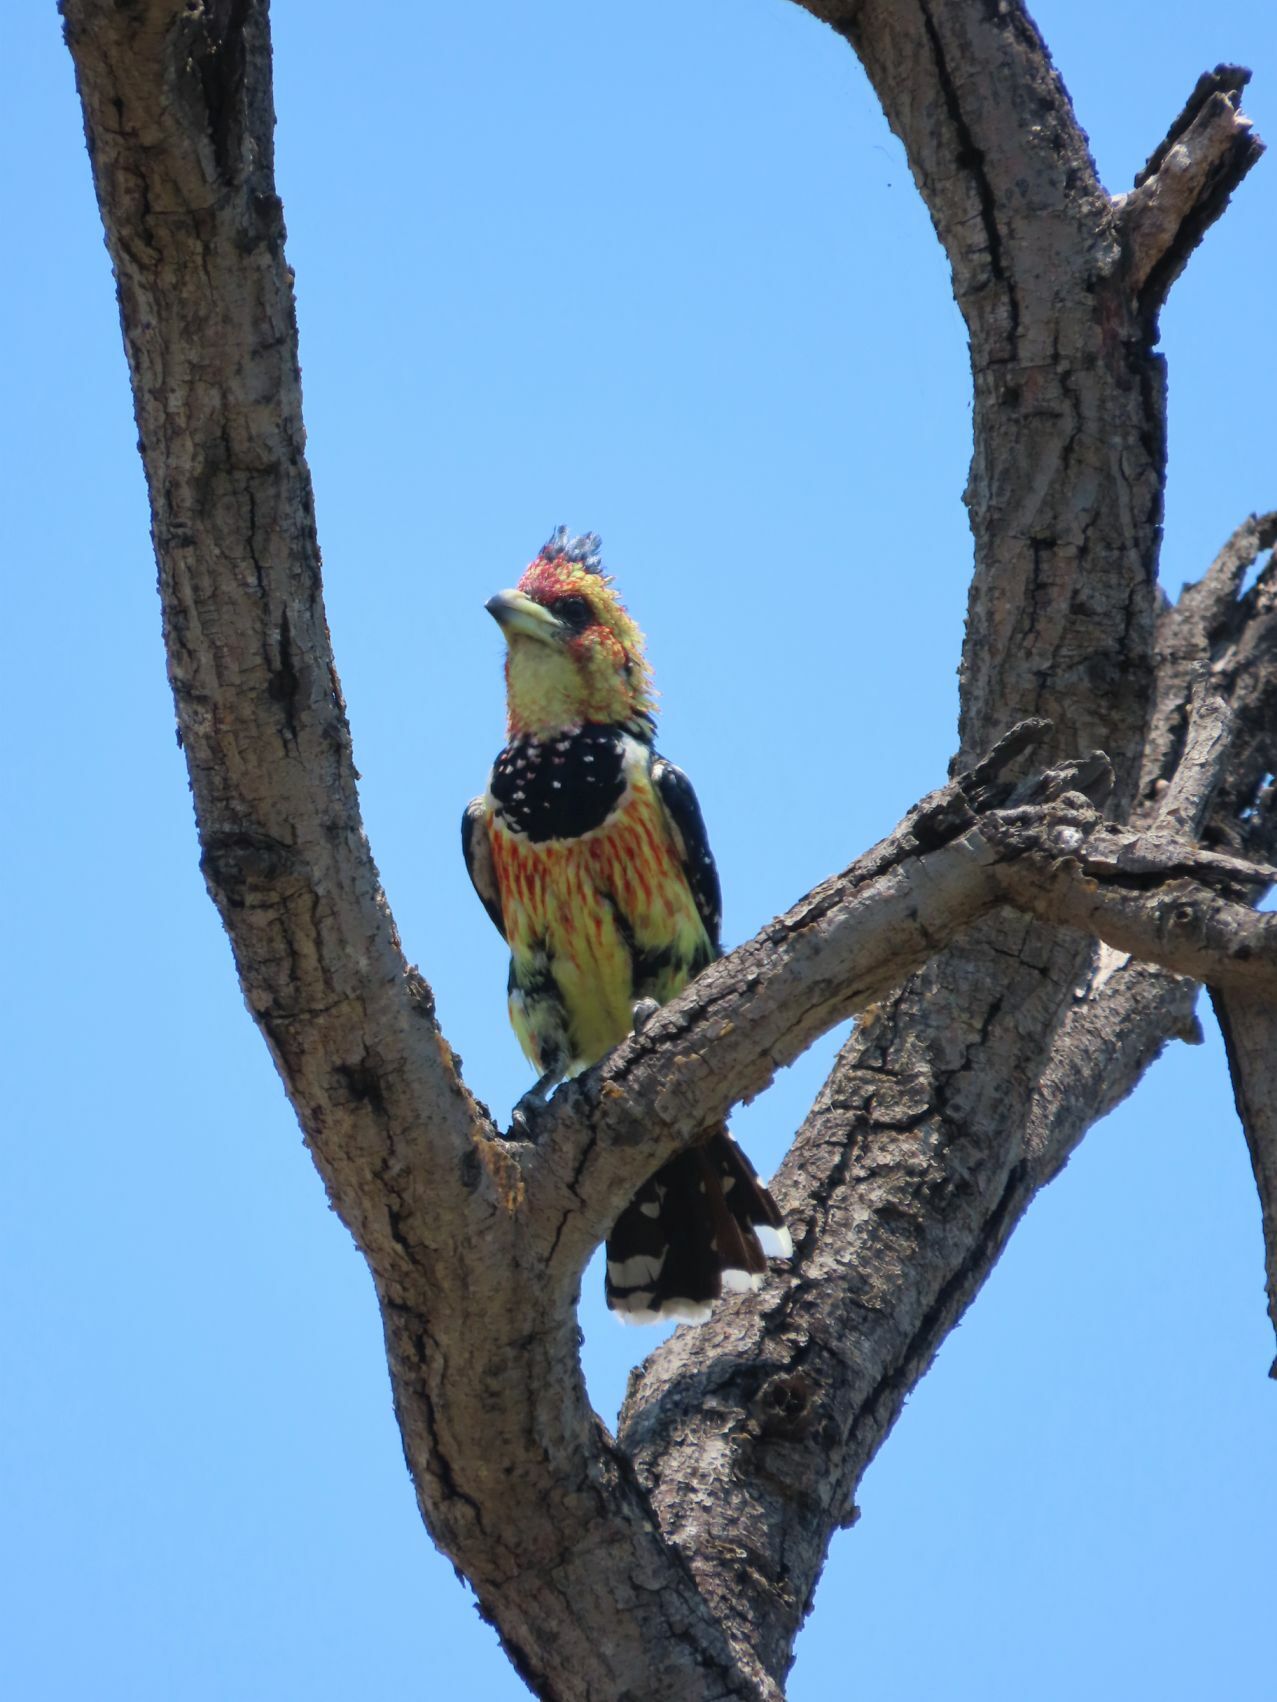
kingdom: Animalia
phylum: Chordata
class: Aves
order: Piciformes
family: Lybiidae
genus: Trachyphonus
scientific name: Trachyphonus vaillantii
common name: Crested barbet
